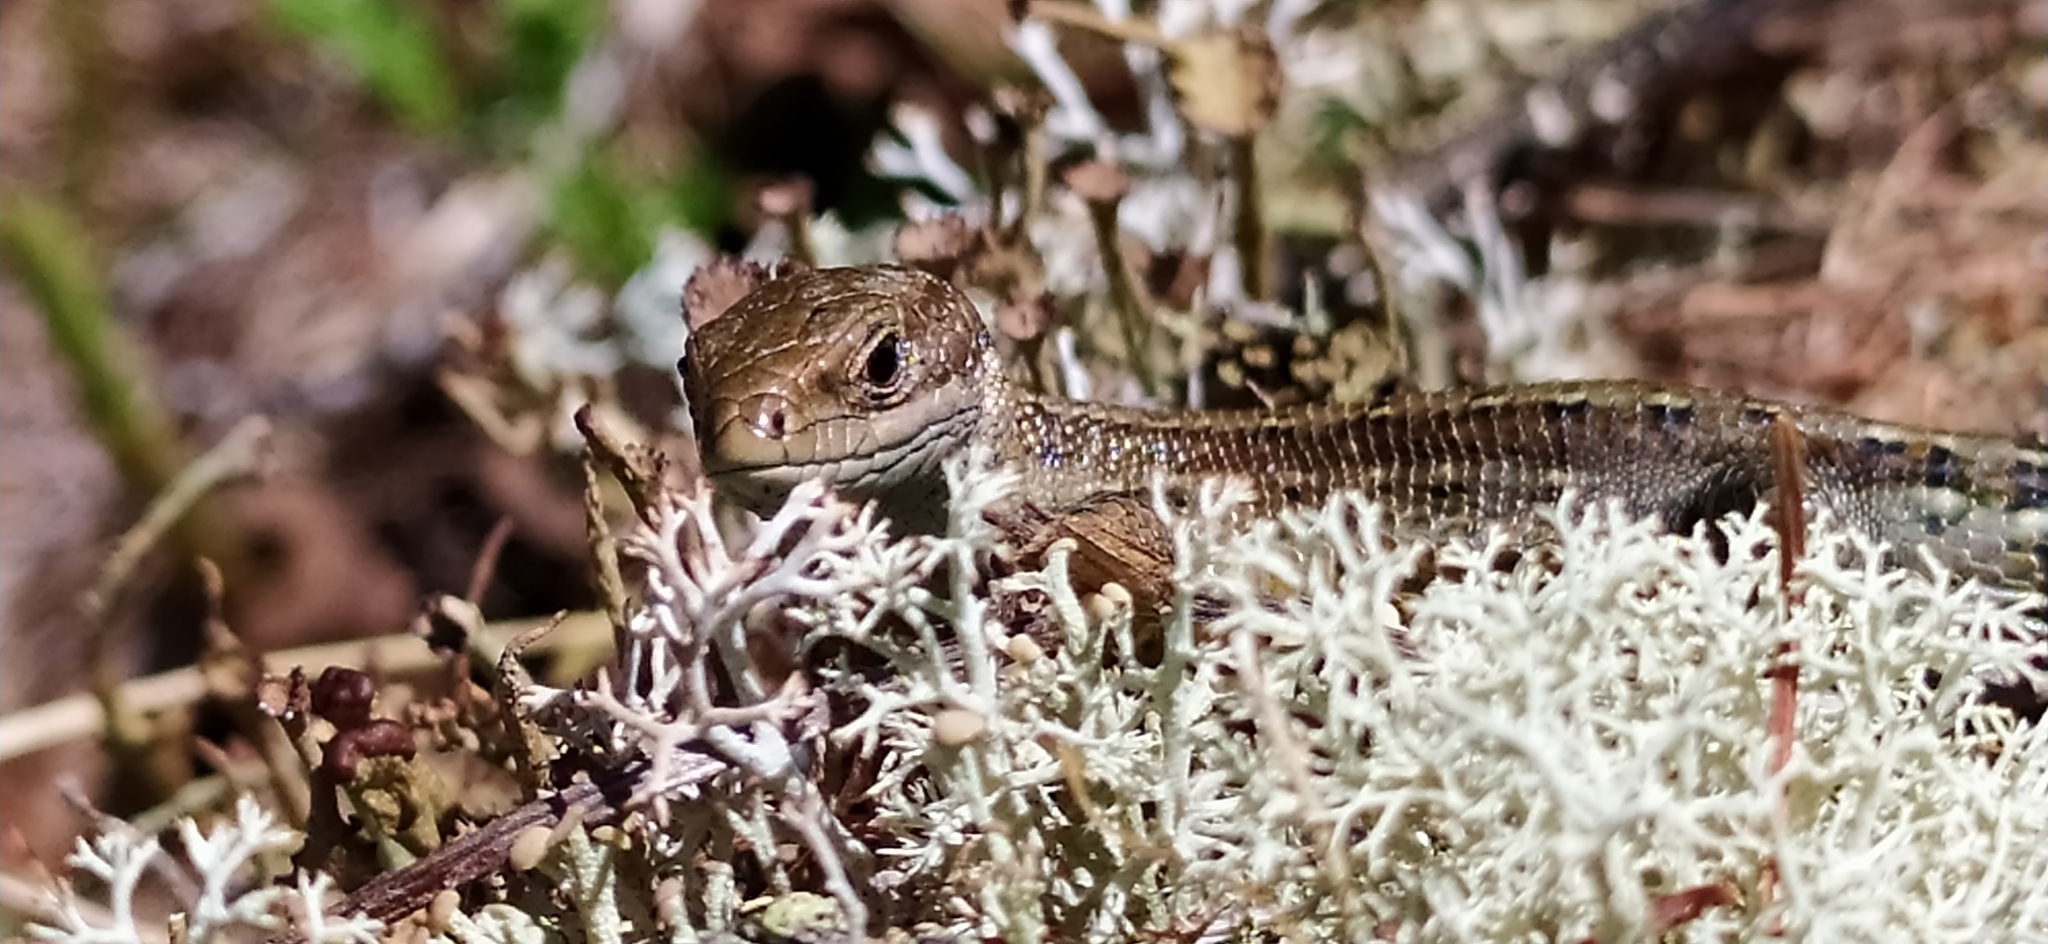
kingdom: Animalia
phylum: Chordata
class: Squamata
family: Lacertidae
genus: Zootoca
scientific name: Zootoca vivipara
